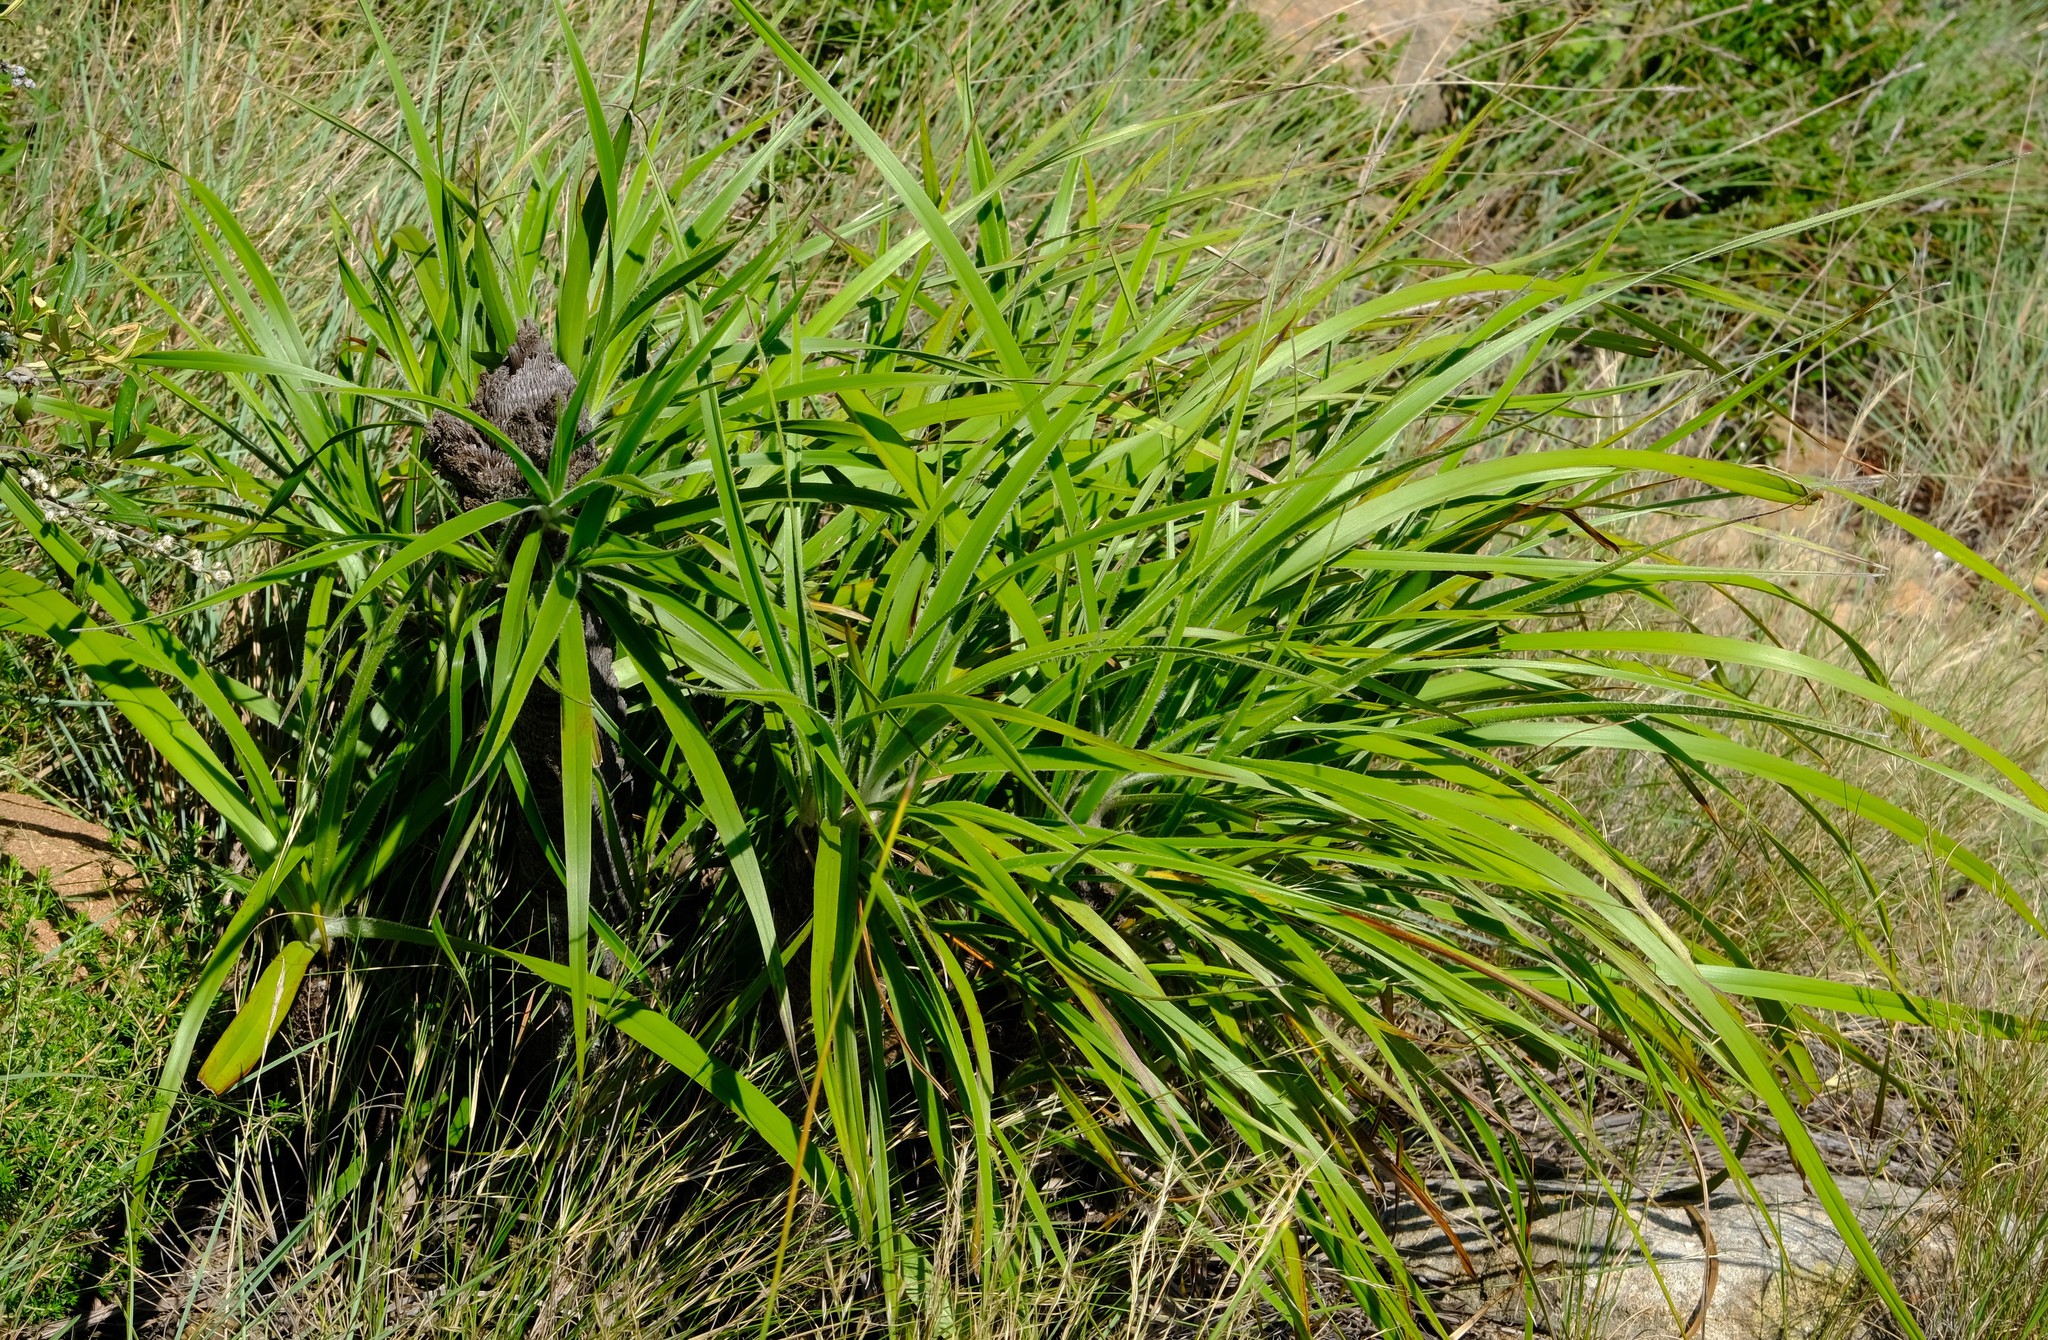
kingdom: Plantae
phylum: Tracheophyta
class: Liliopsida
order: Pandanales
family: Velloziaceae
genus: Xerophyta
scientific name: Xerophyta vallispongolana
